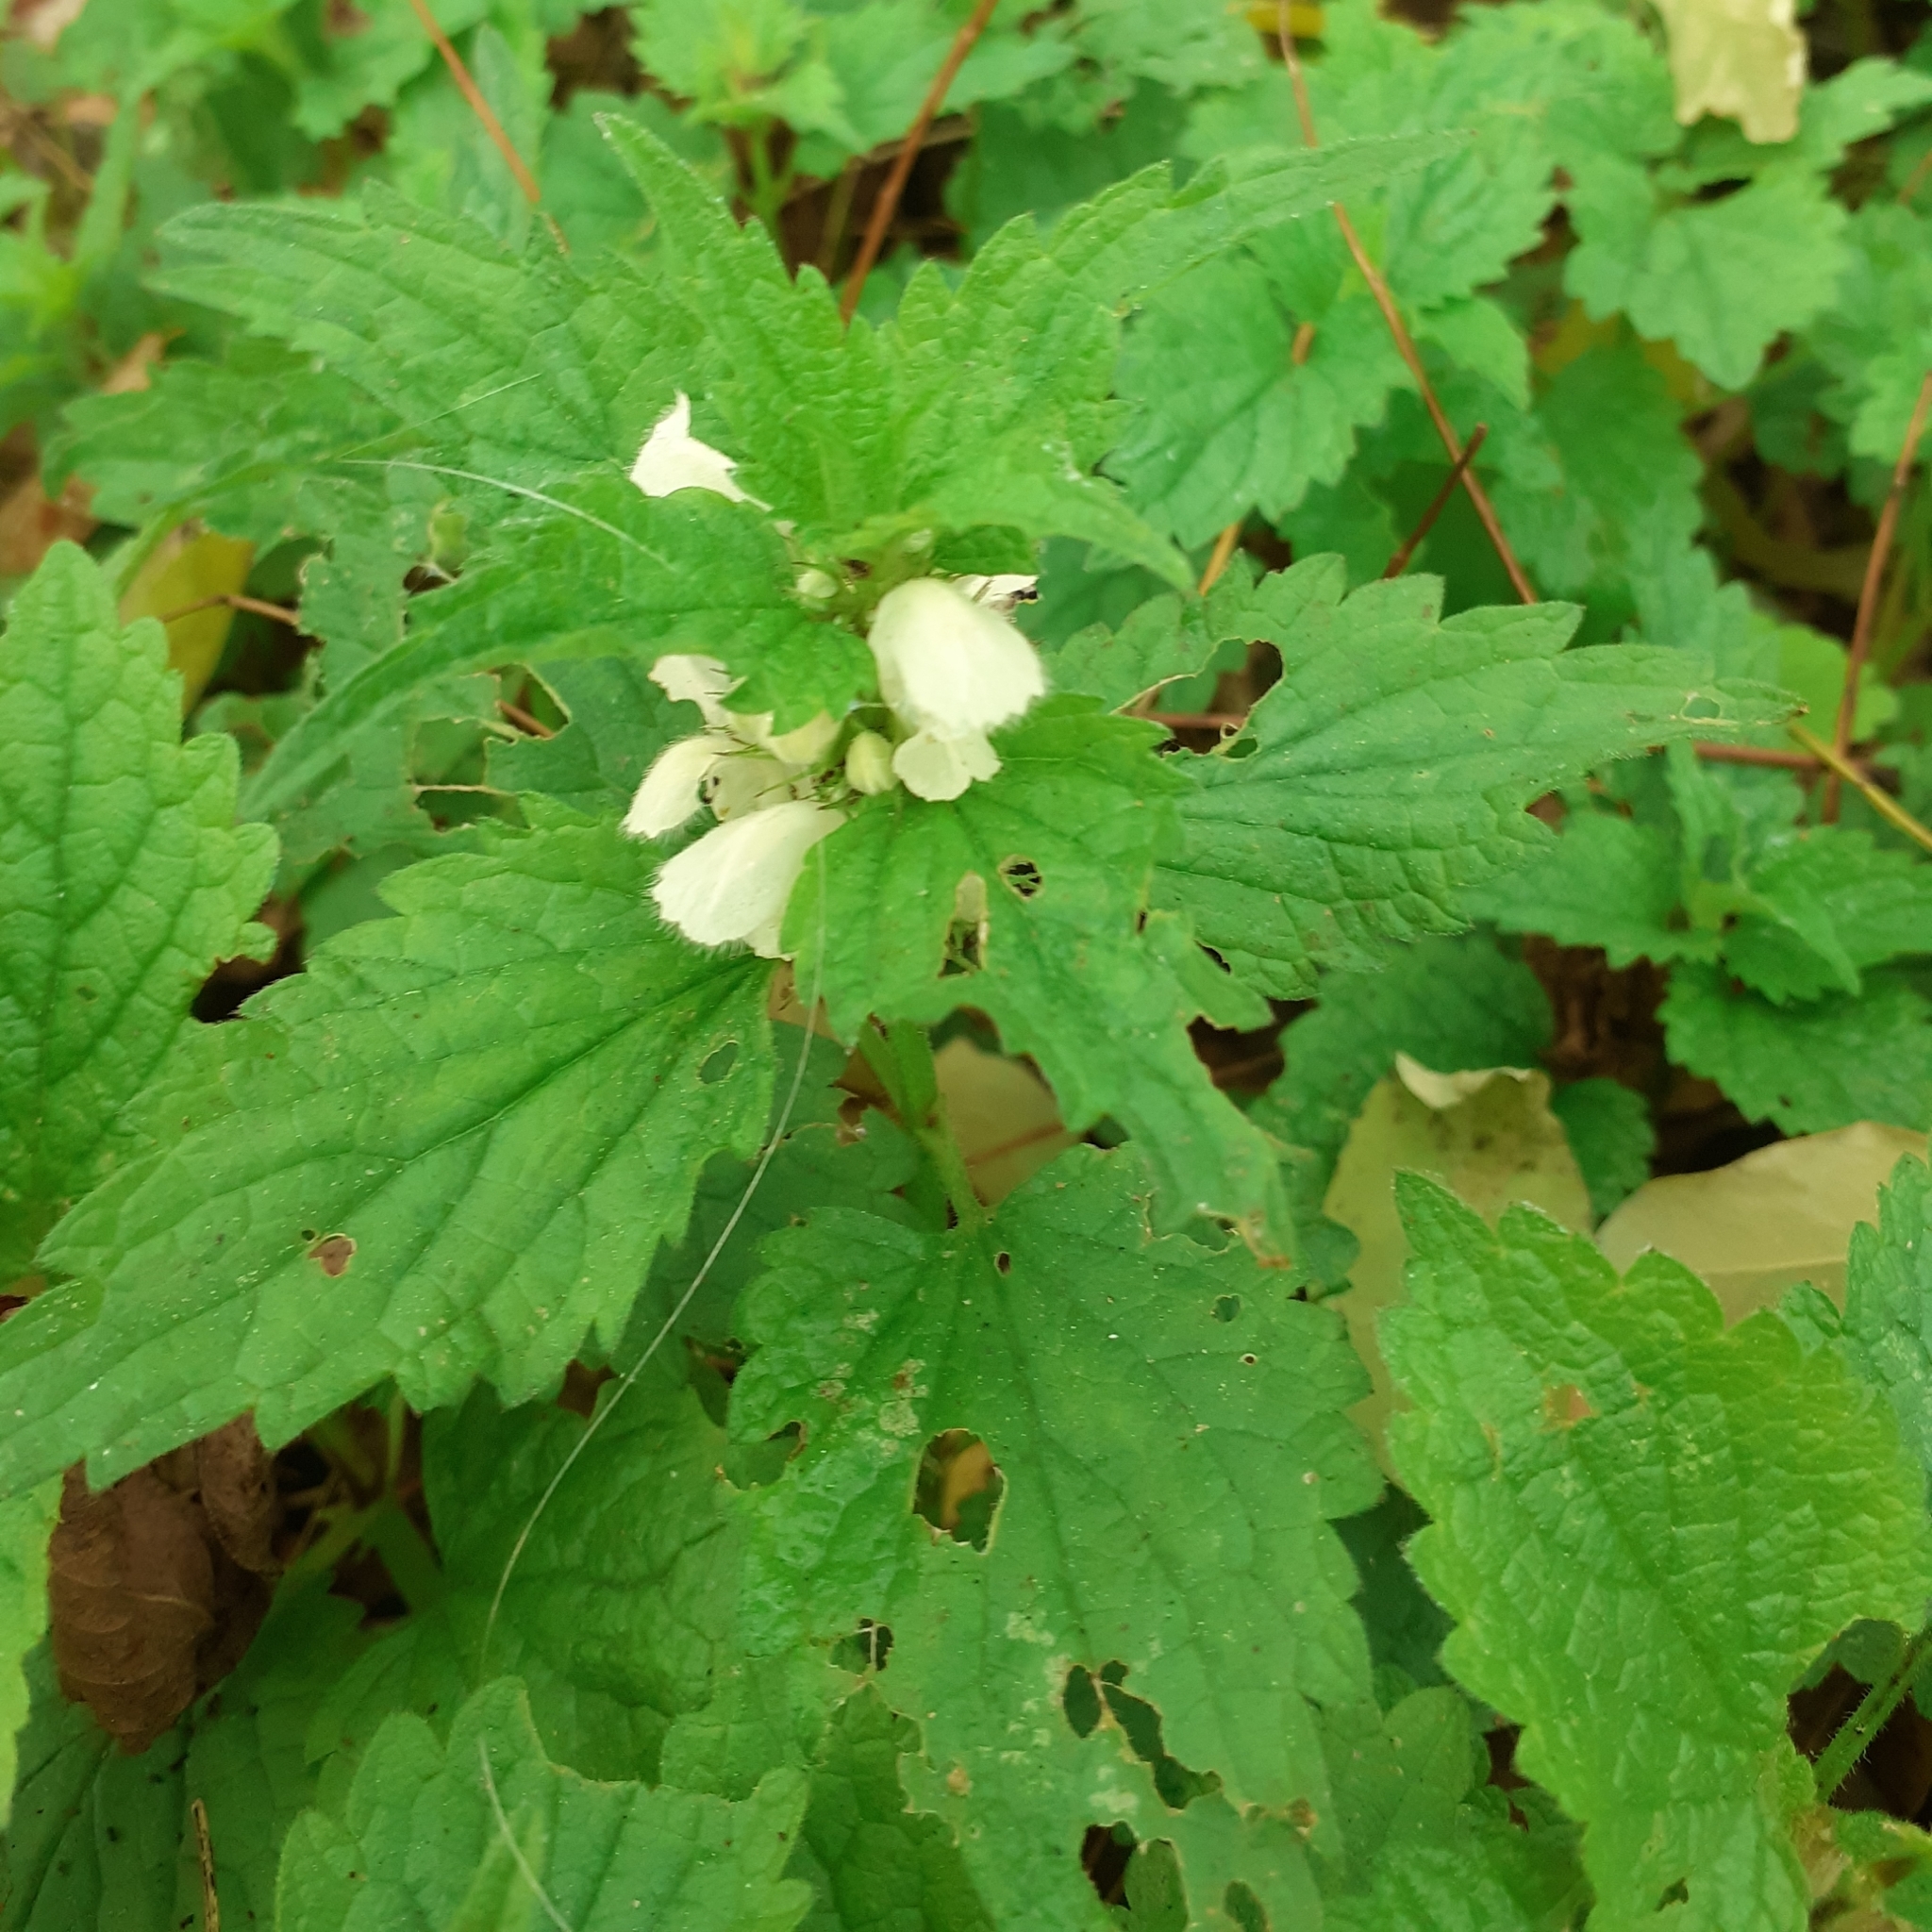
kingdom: Plantae
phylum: Tracheophyta
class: Magnoliopsida
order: Lamiales
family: Lamiaceae
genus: Lamium
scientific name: Lamium album
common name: White dead-nettle
